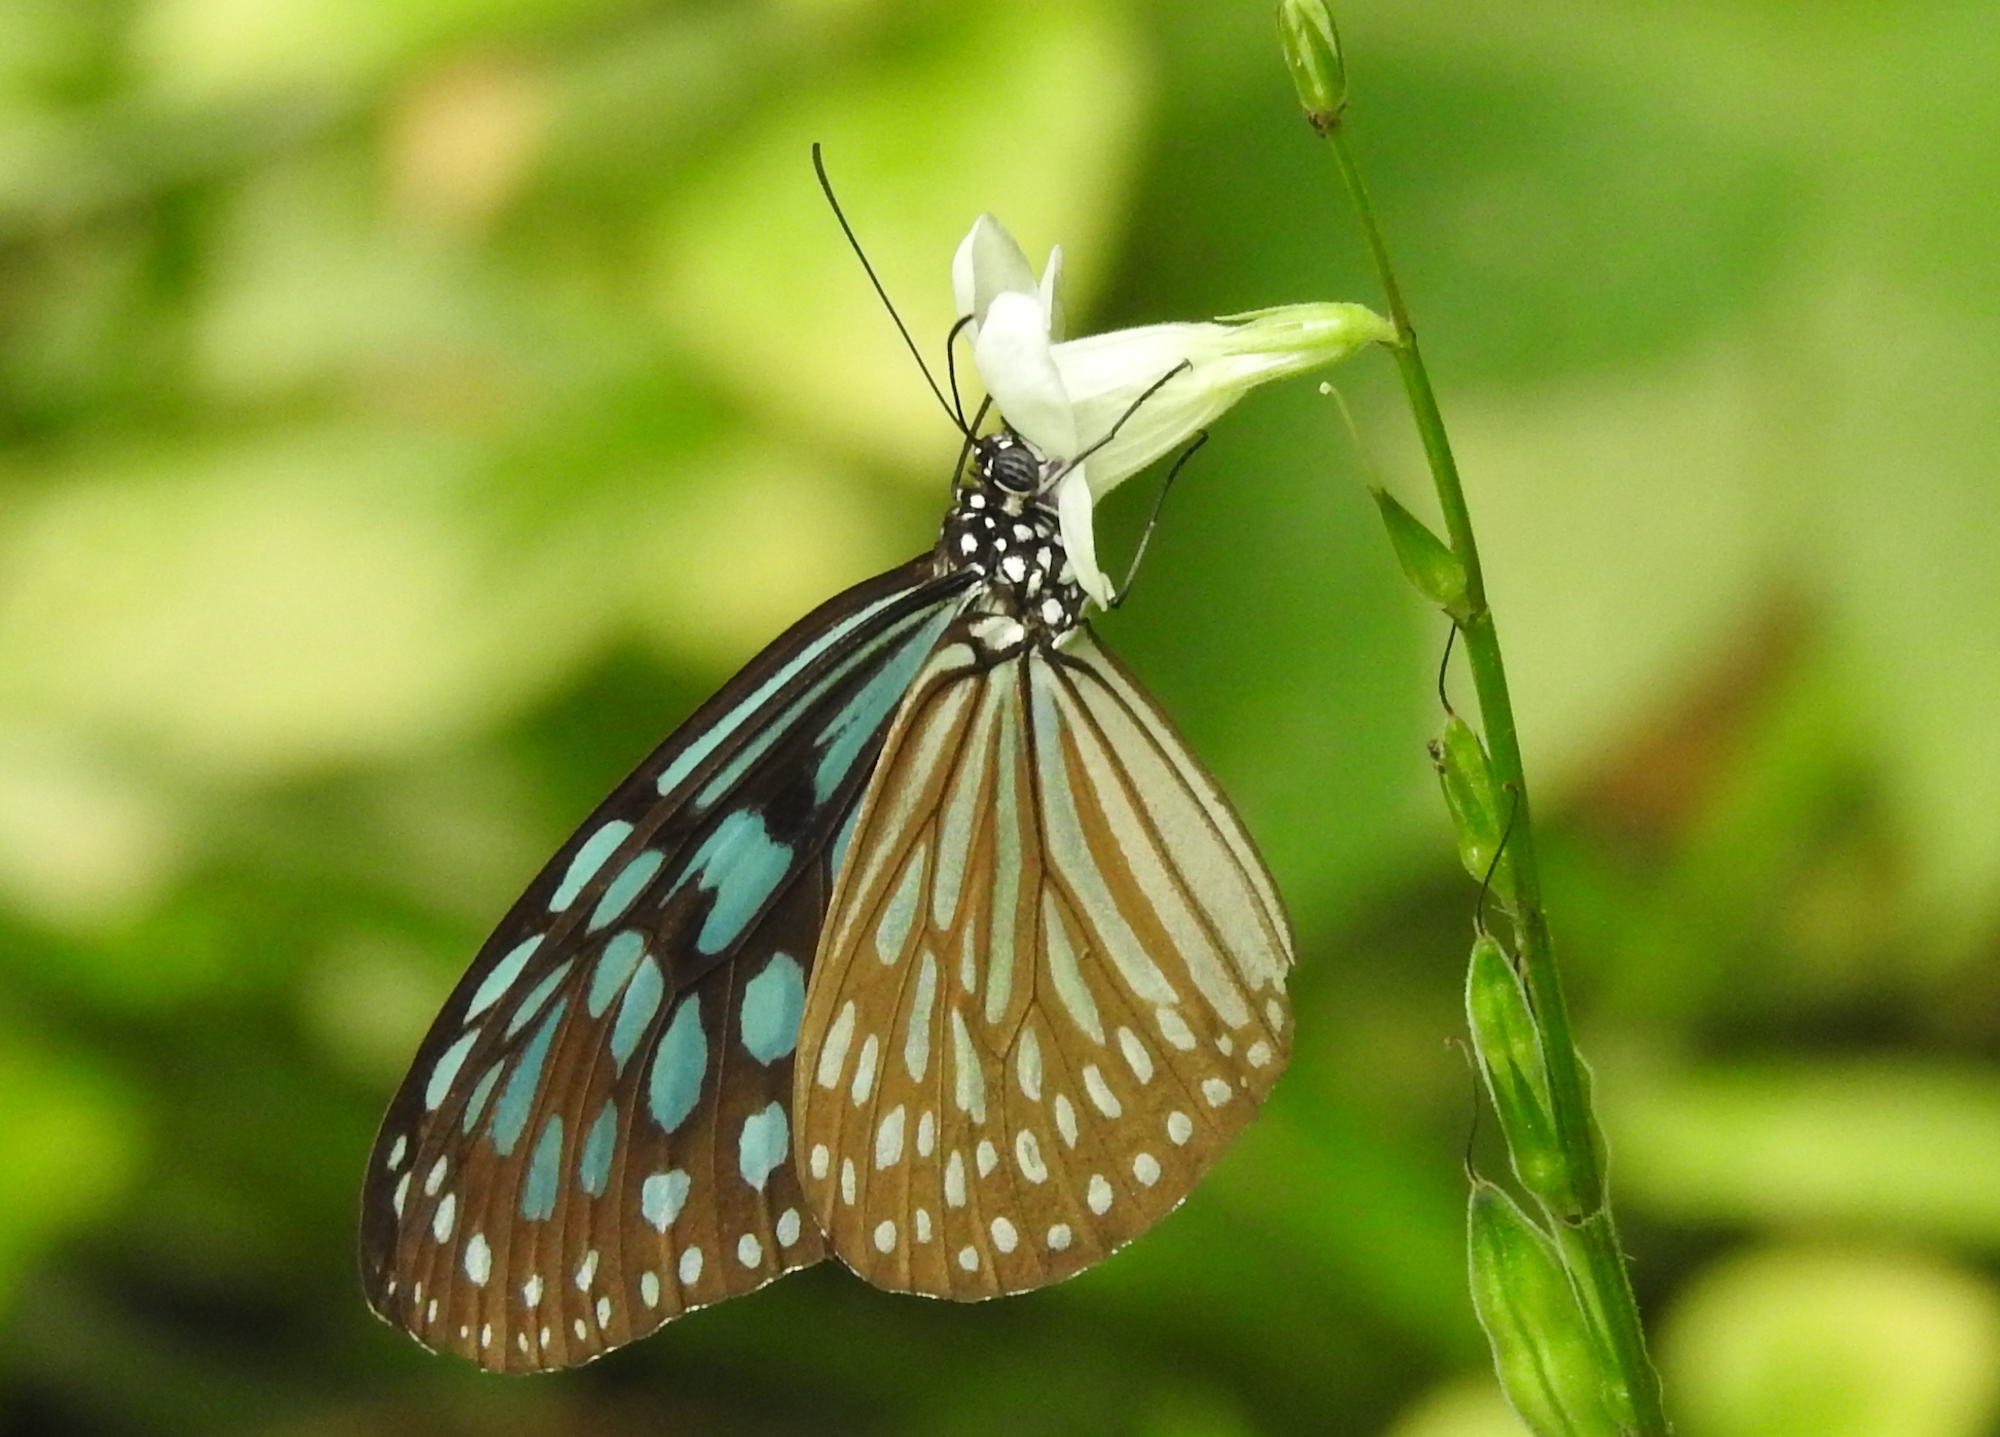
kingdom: Animalia
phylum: Arthropoda
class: Insecta
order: Lepidoptera
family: Nymphalidae
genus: Ideopsis
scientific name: Ideopsis similis
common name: Ceylon blue glassy tiger
